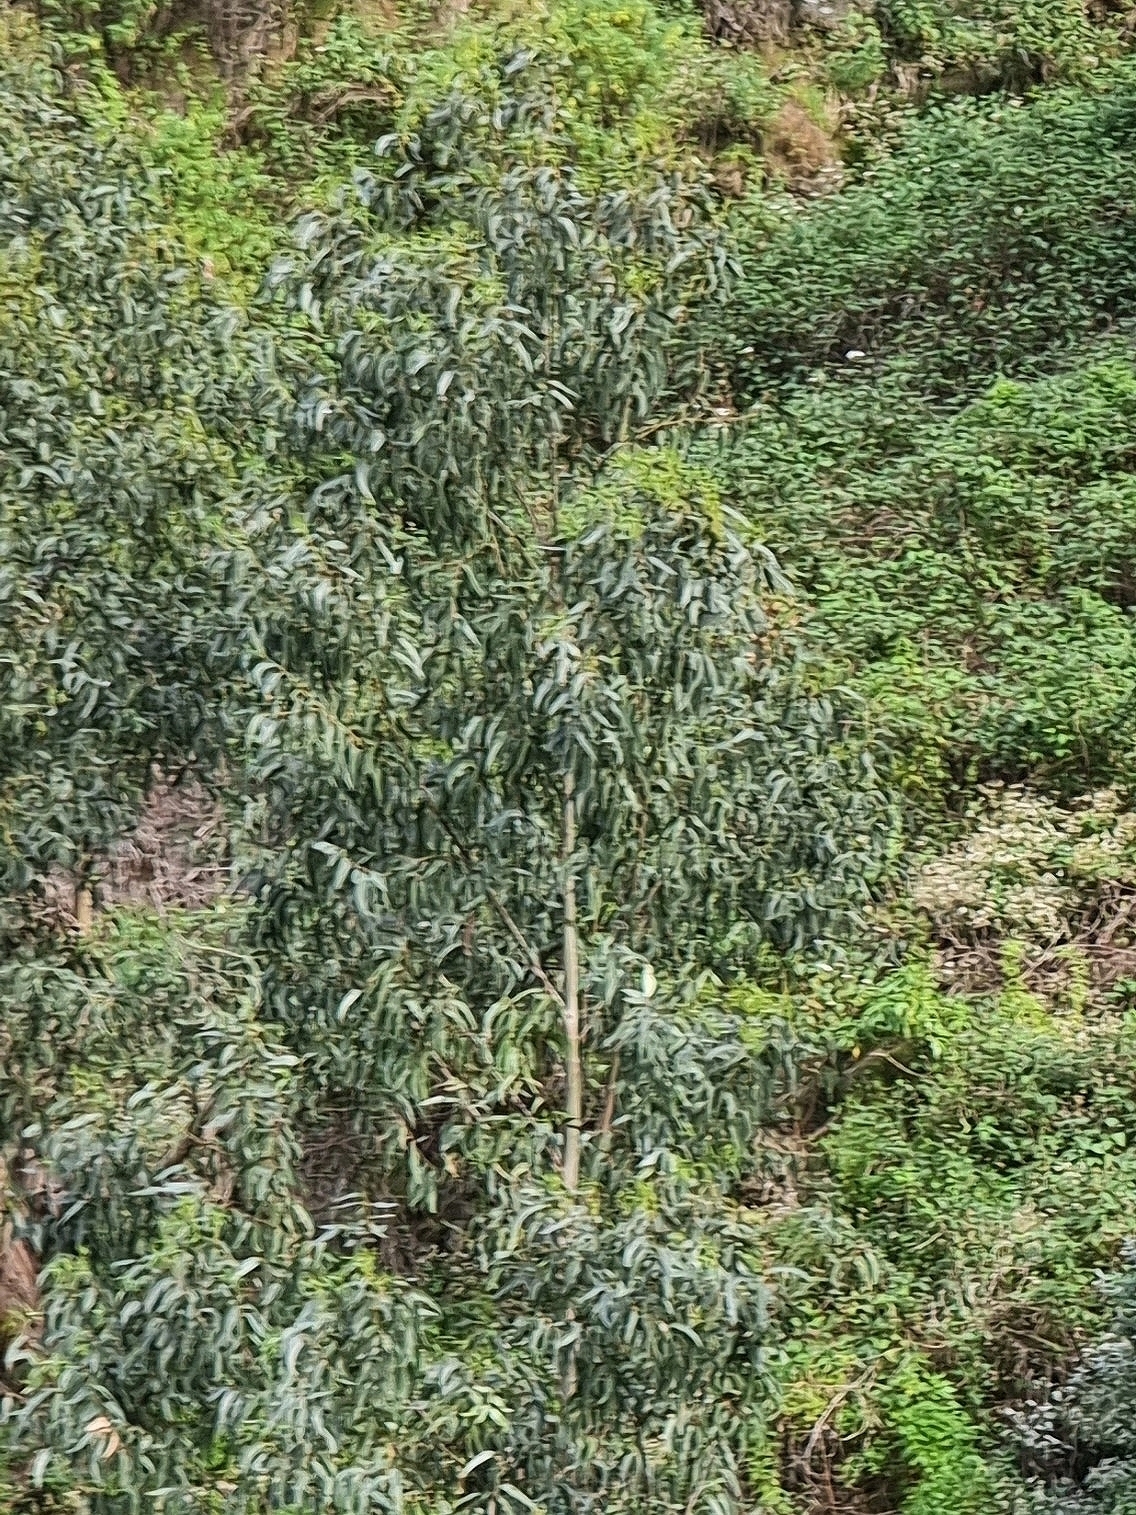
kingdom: Plantae
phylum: Tracheophyta
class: Magnoliopsida
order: Myrtales
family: Myrtaceae
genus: Eucalyptus
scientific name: Eucalyptus globulus
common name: Southern blue-gum
